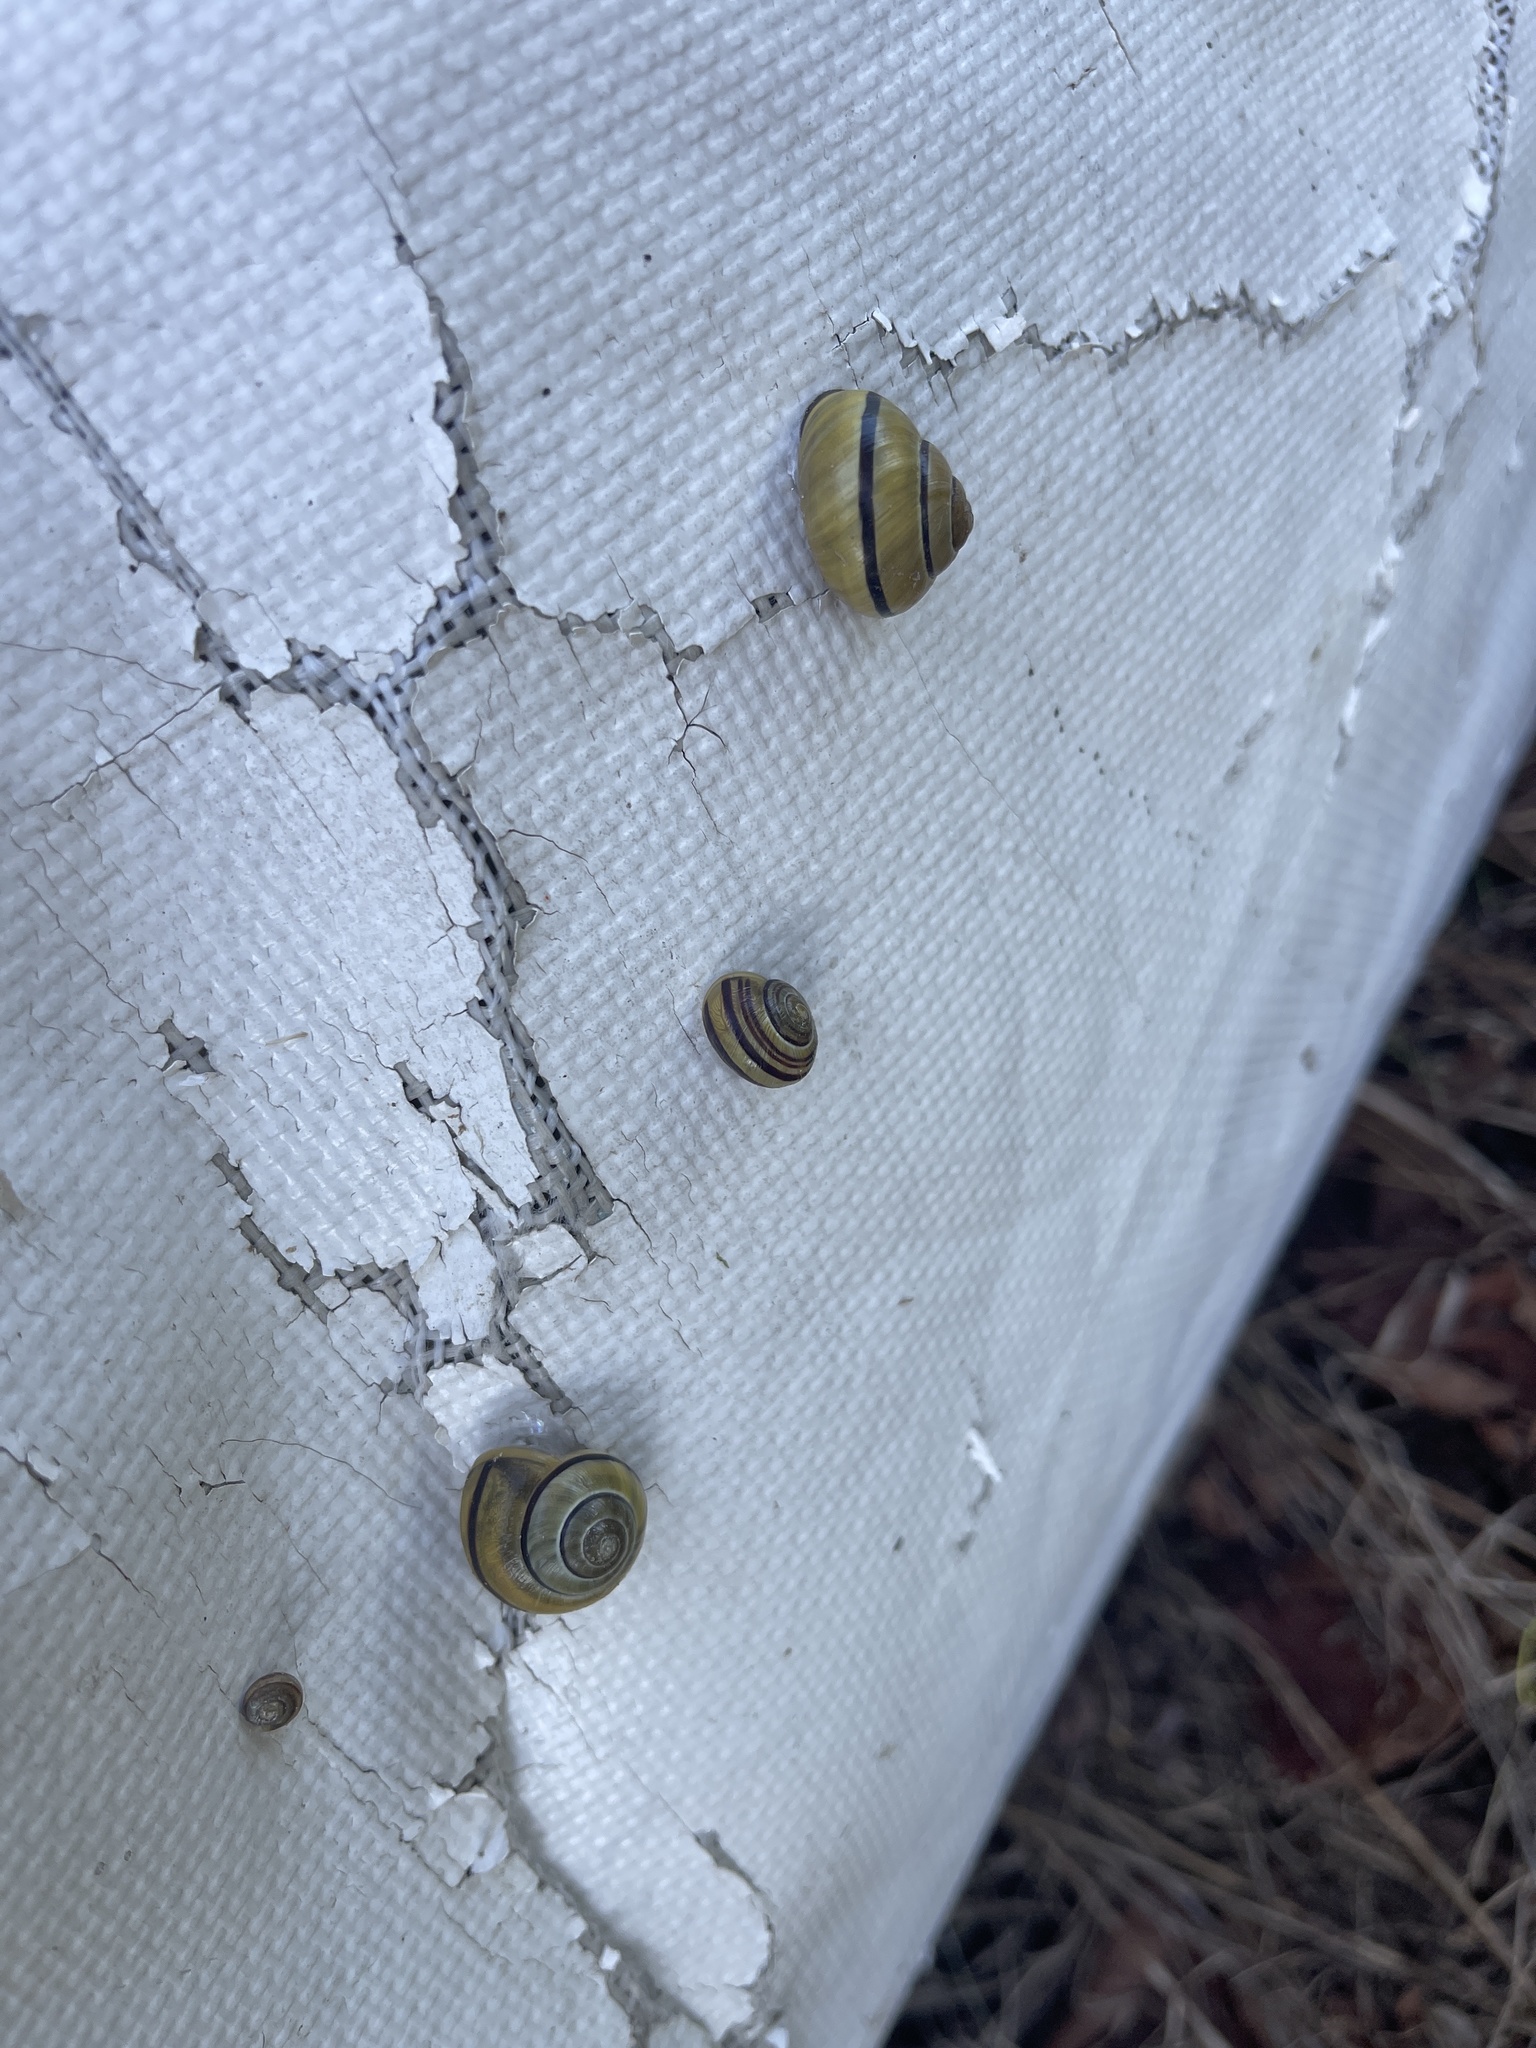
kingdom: Animalia
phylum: Mollusca
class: Gastropoda
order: Stylommatophora
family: Helicidae
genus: Cepaea
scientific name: Cepaea nemoralis
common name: Grovesnail
